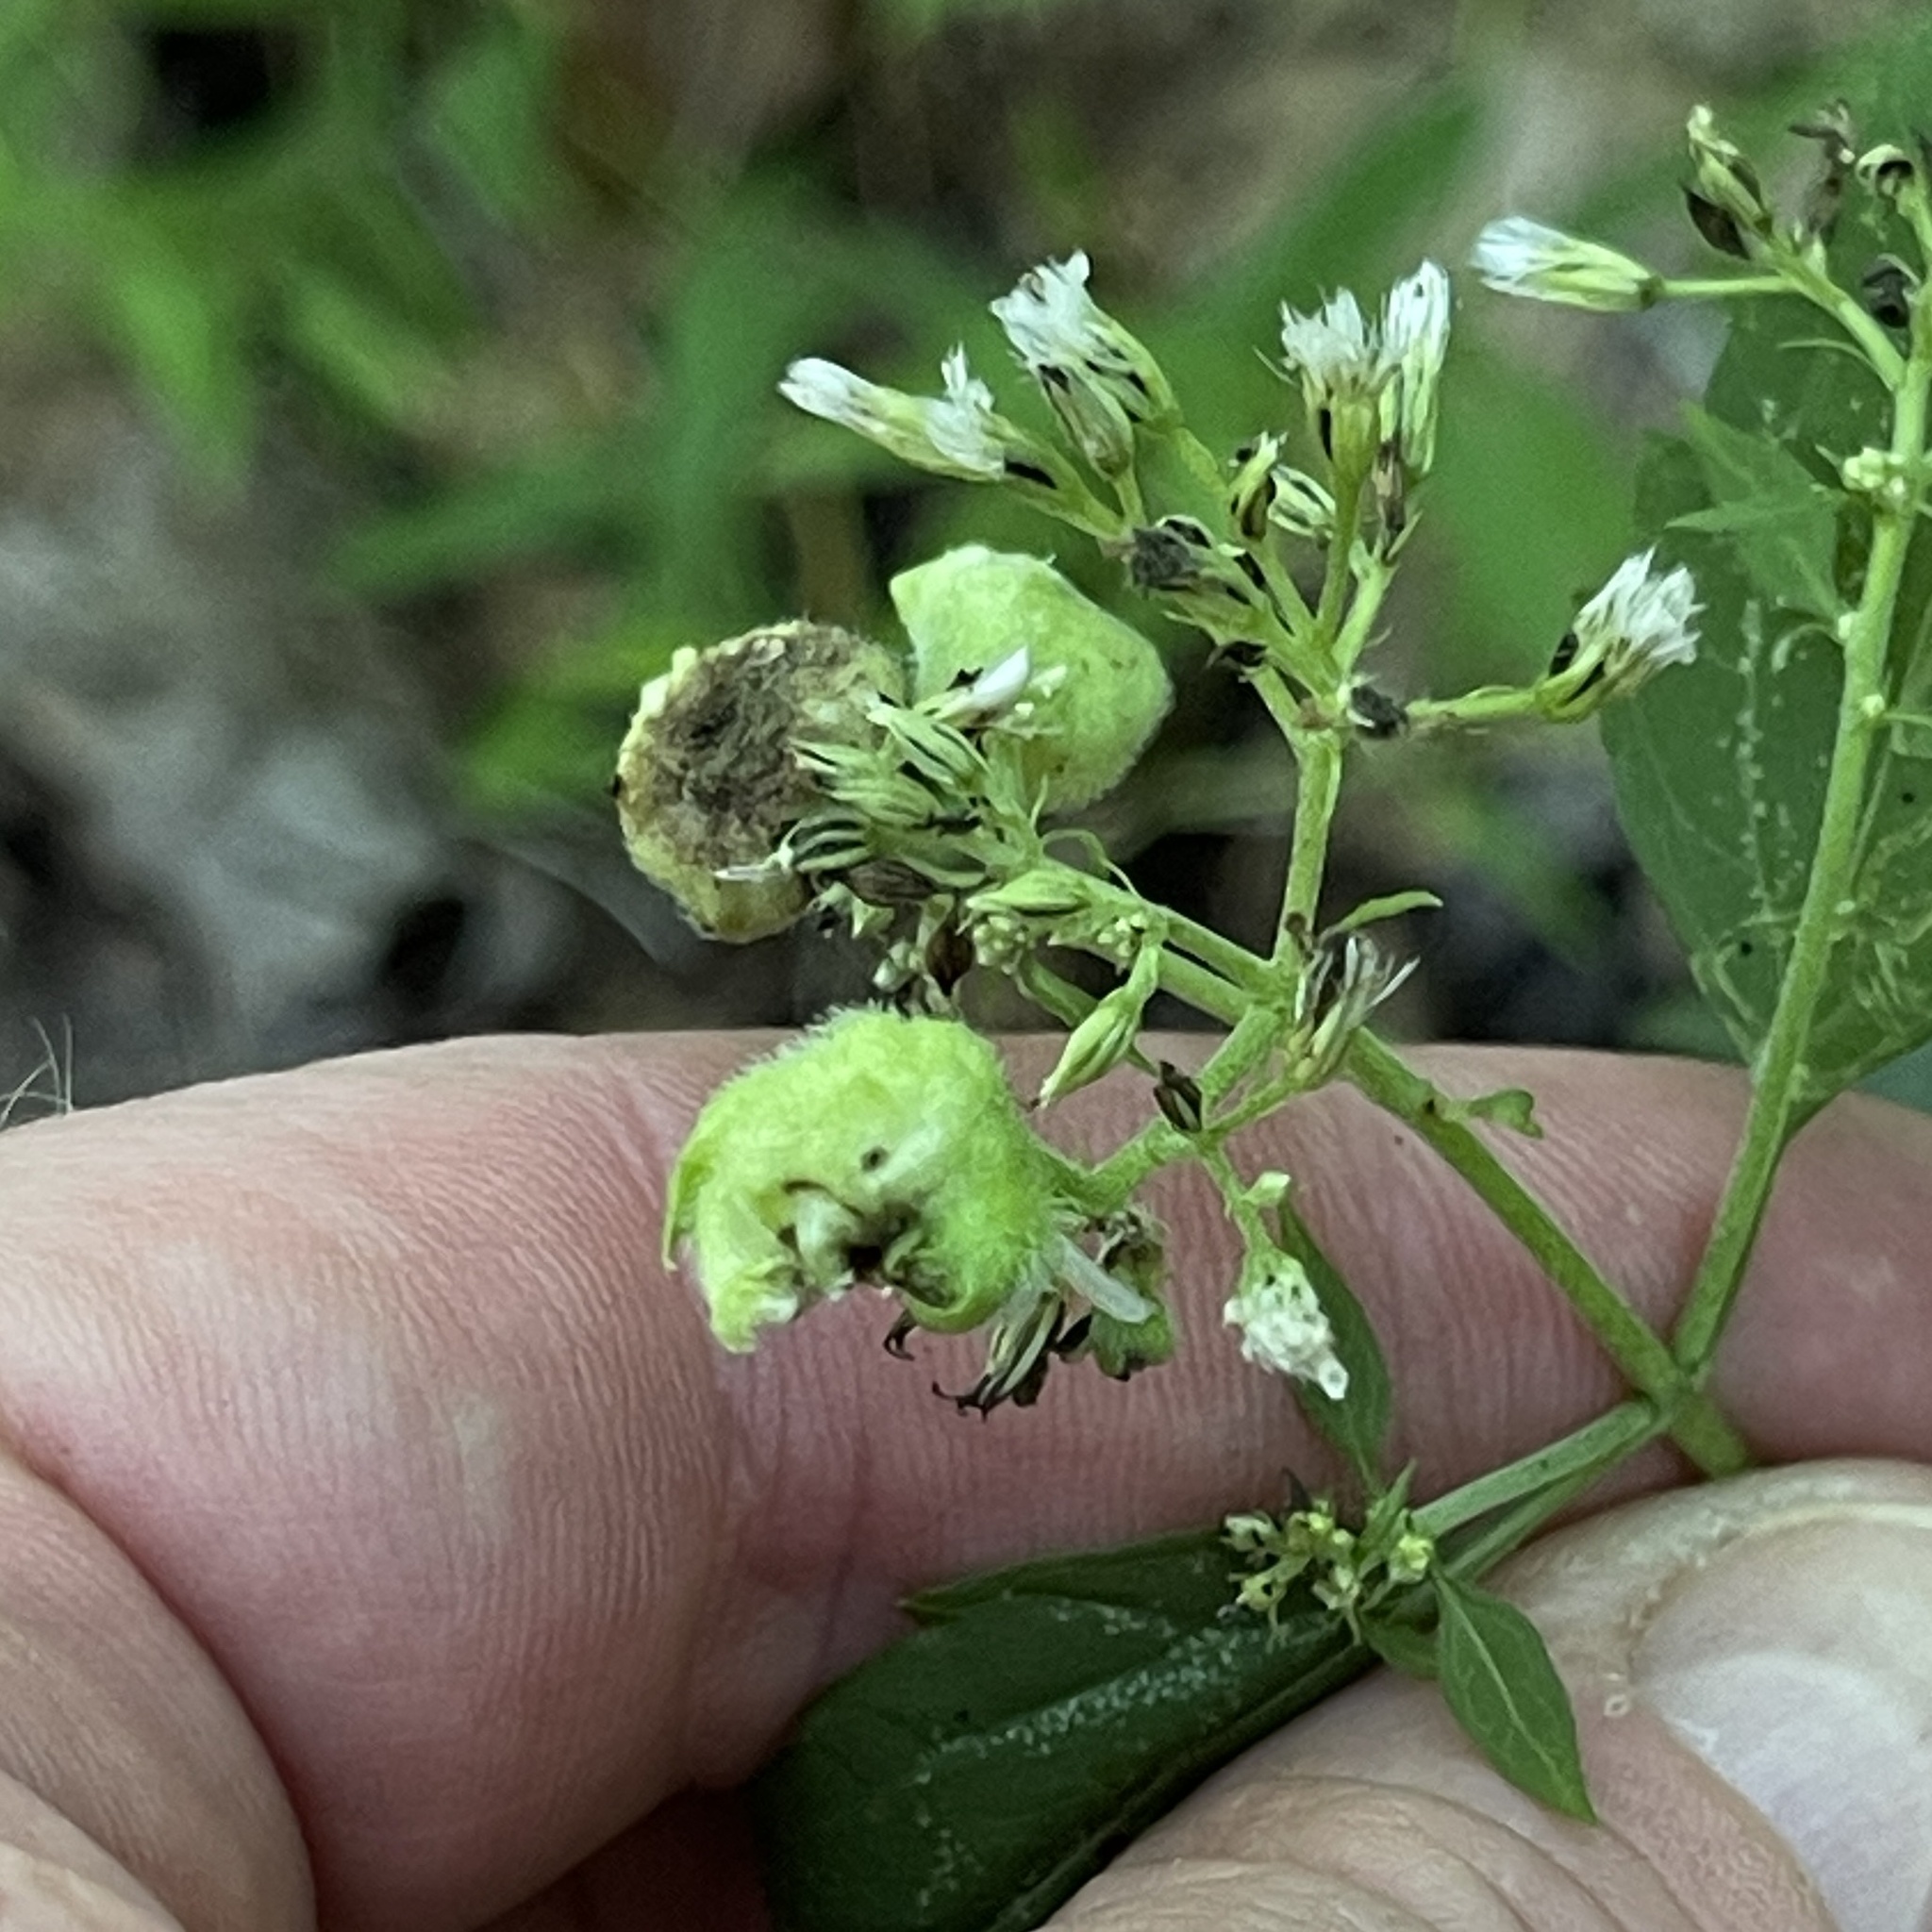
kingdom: Animalia
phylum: Arthropoda
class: Insecta
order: Diptera
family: Cecidomyiidae
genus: Schizomyia
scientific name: Schizomyia eupatoriflorae
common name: Boneset flower gall midge
